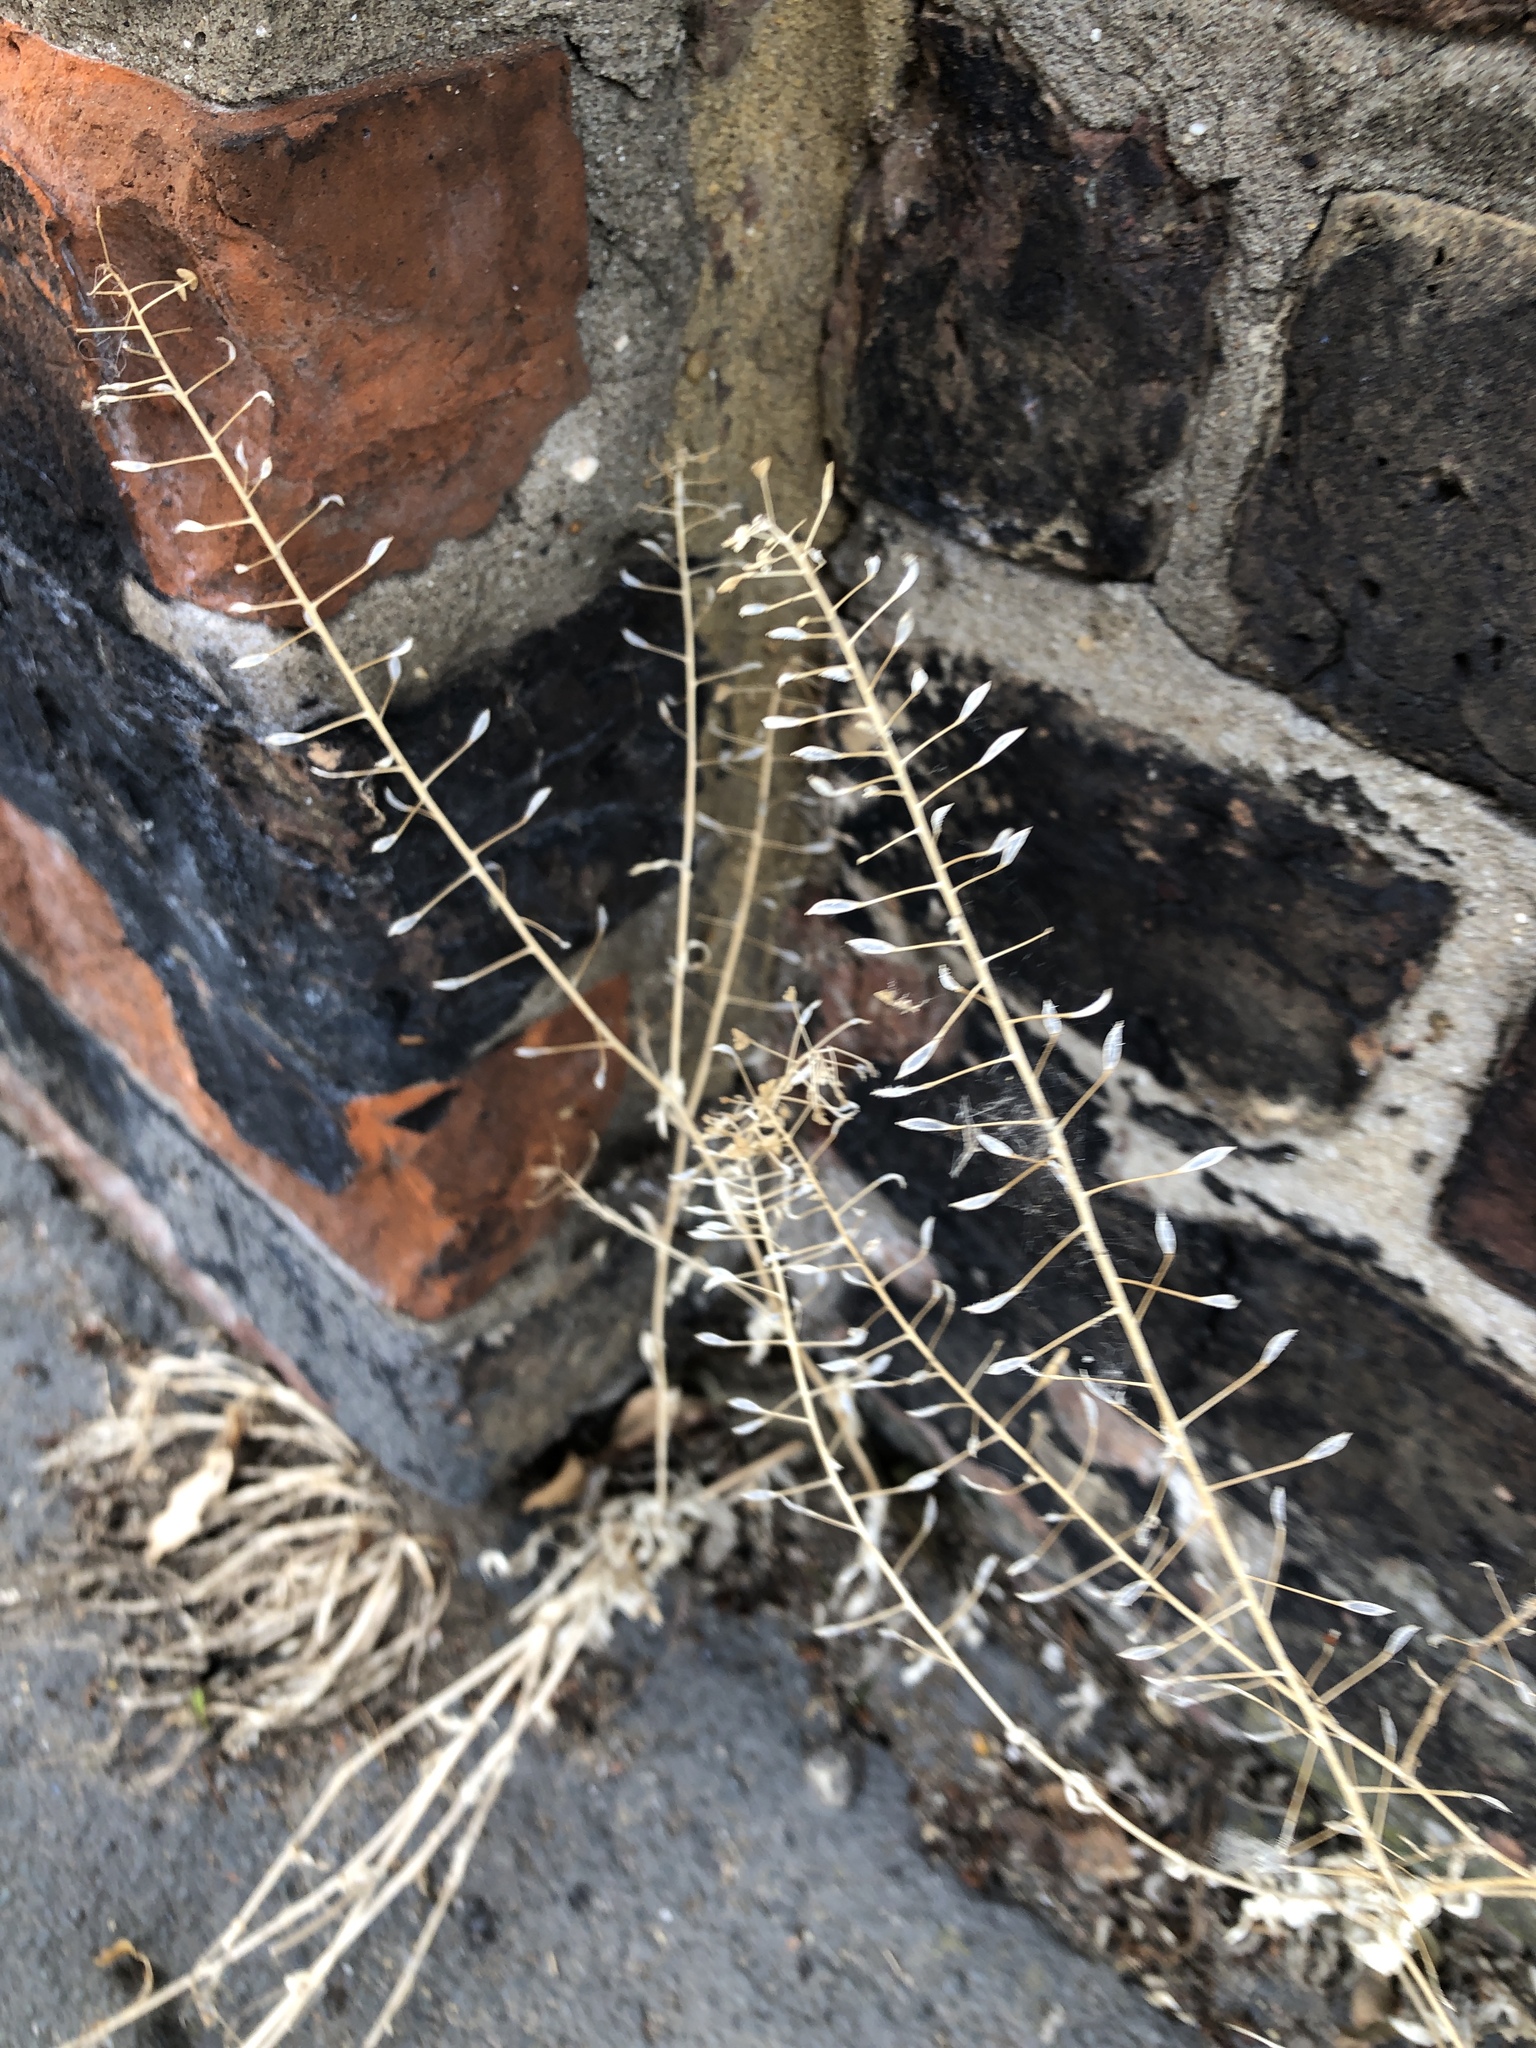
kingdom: Plantae
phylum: Tracheophyta
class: Magnoliopsida
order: Brassicales
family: Brassicaceae
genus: Capsella
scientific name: Capsella bursa-pastoris
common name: Shepherd's purse
